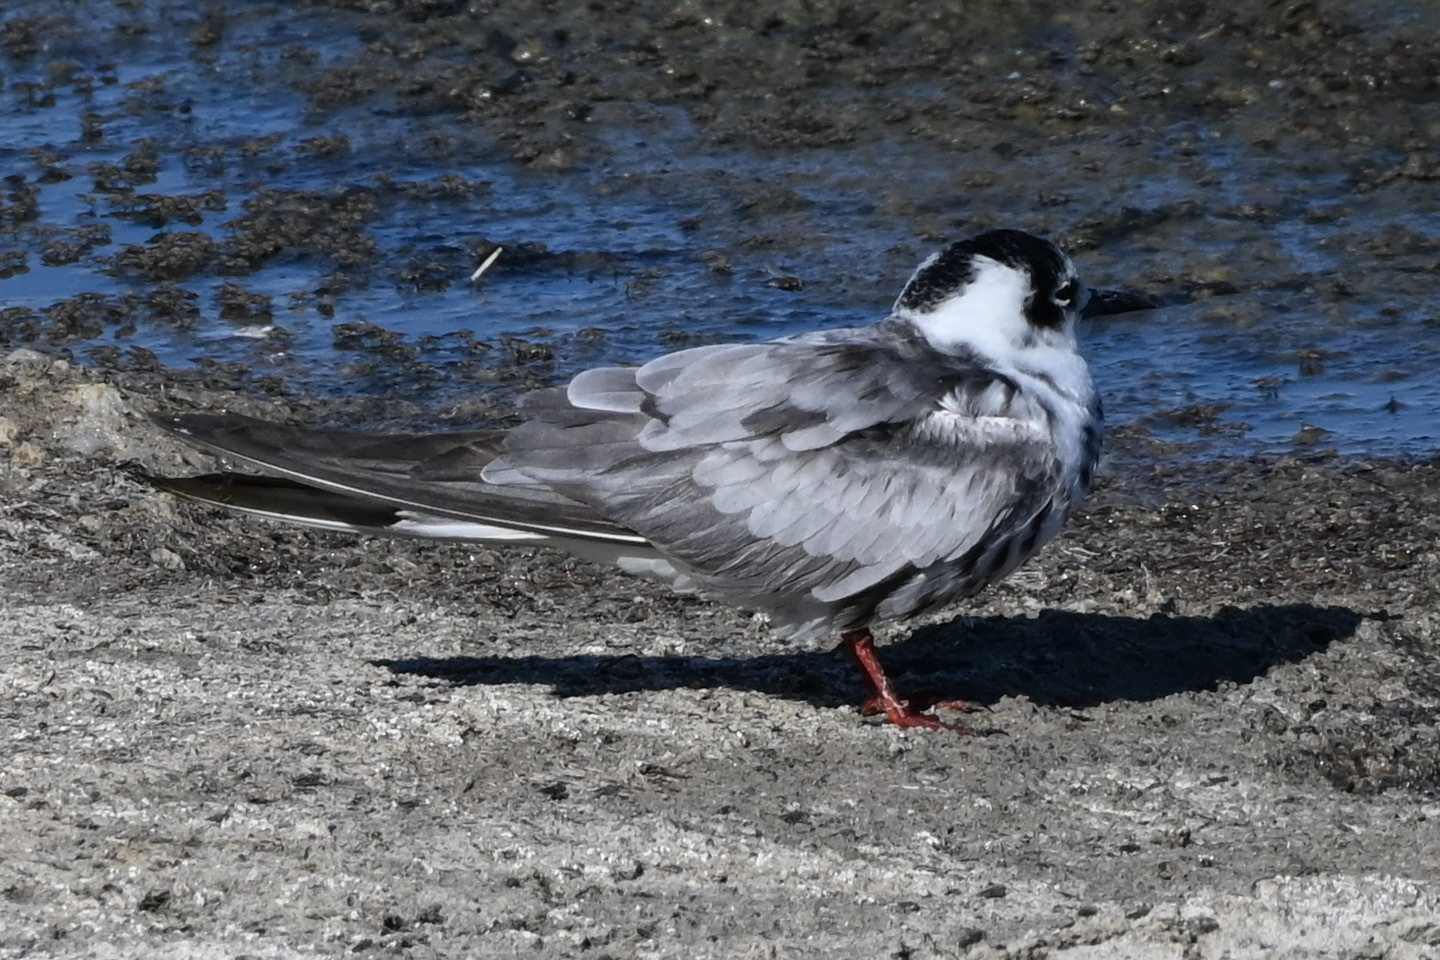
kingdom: Animalia
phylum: Chordata
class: Aves
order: Charadriiformes
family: Laridae
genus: Chlidonias
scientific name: Chlidonias leucopterus
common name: White-winged tern
